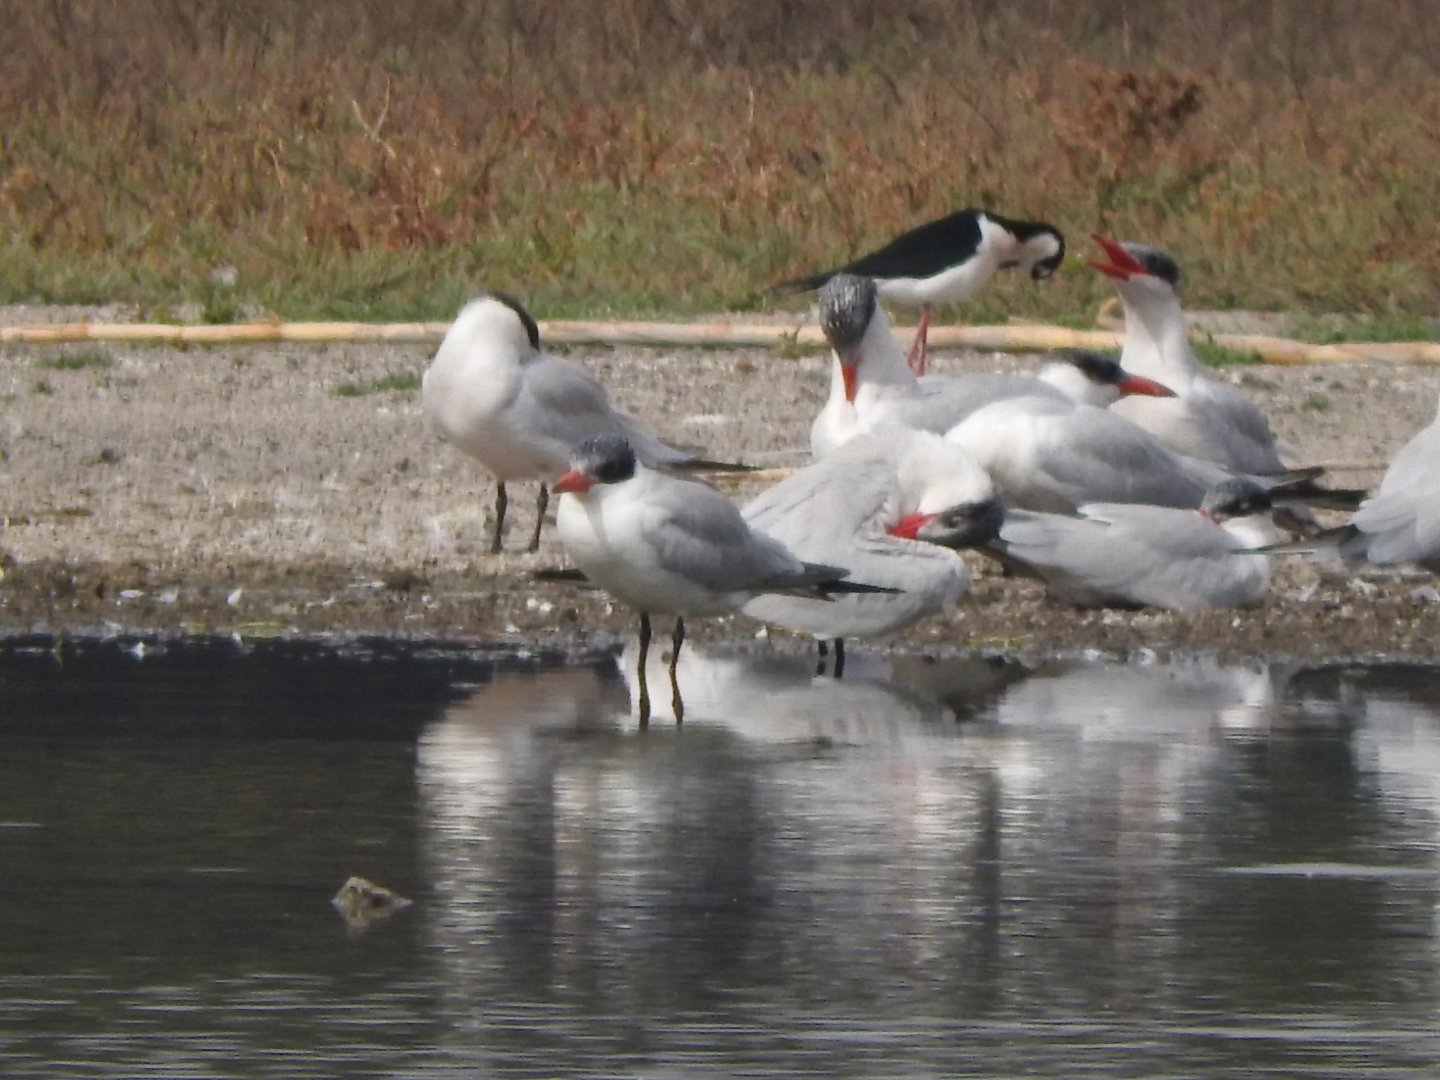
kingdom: Animalia
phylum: Chordata
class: Aves
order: Charadriiformes
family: Laridae
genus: Hydroprogne
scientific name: Hydroprogne caspia
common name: Caspian tern
